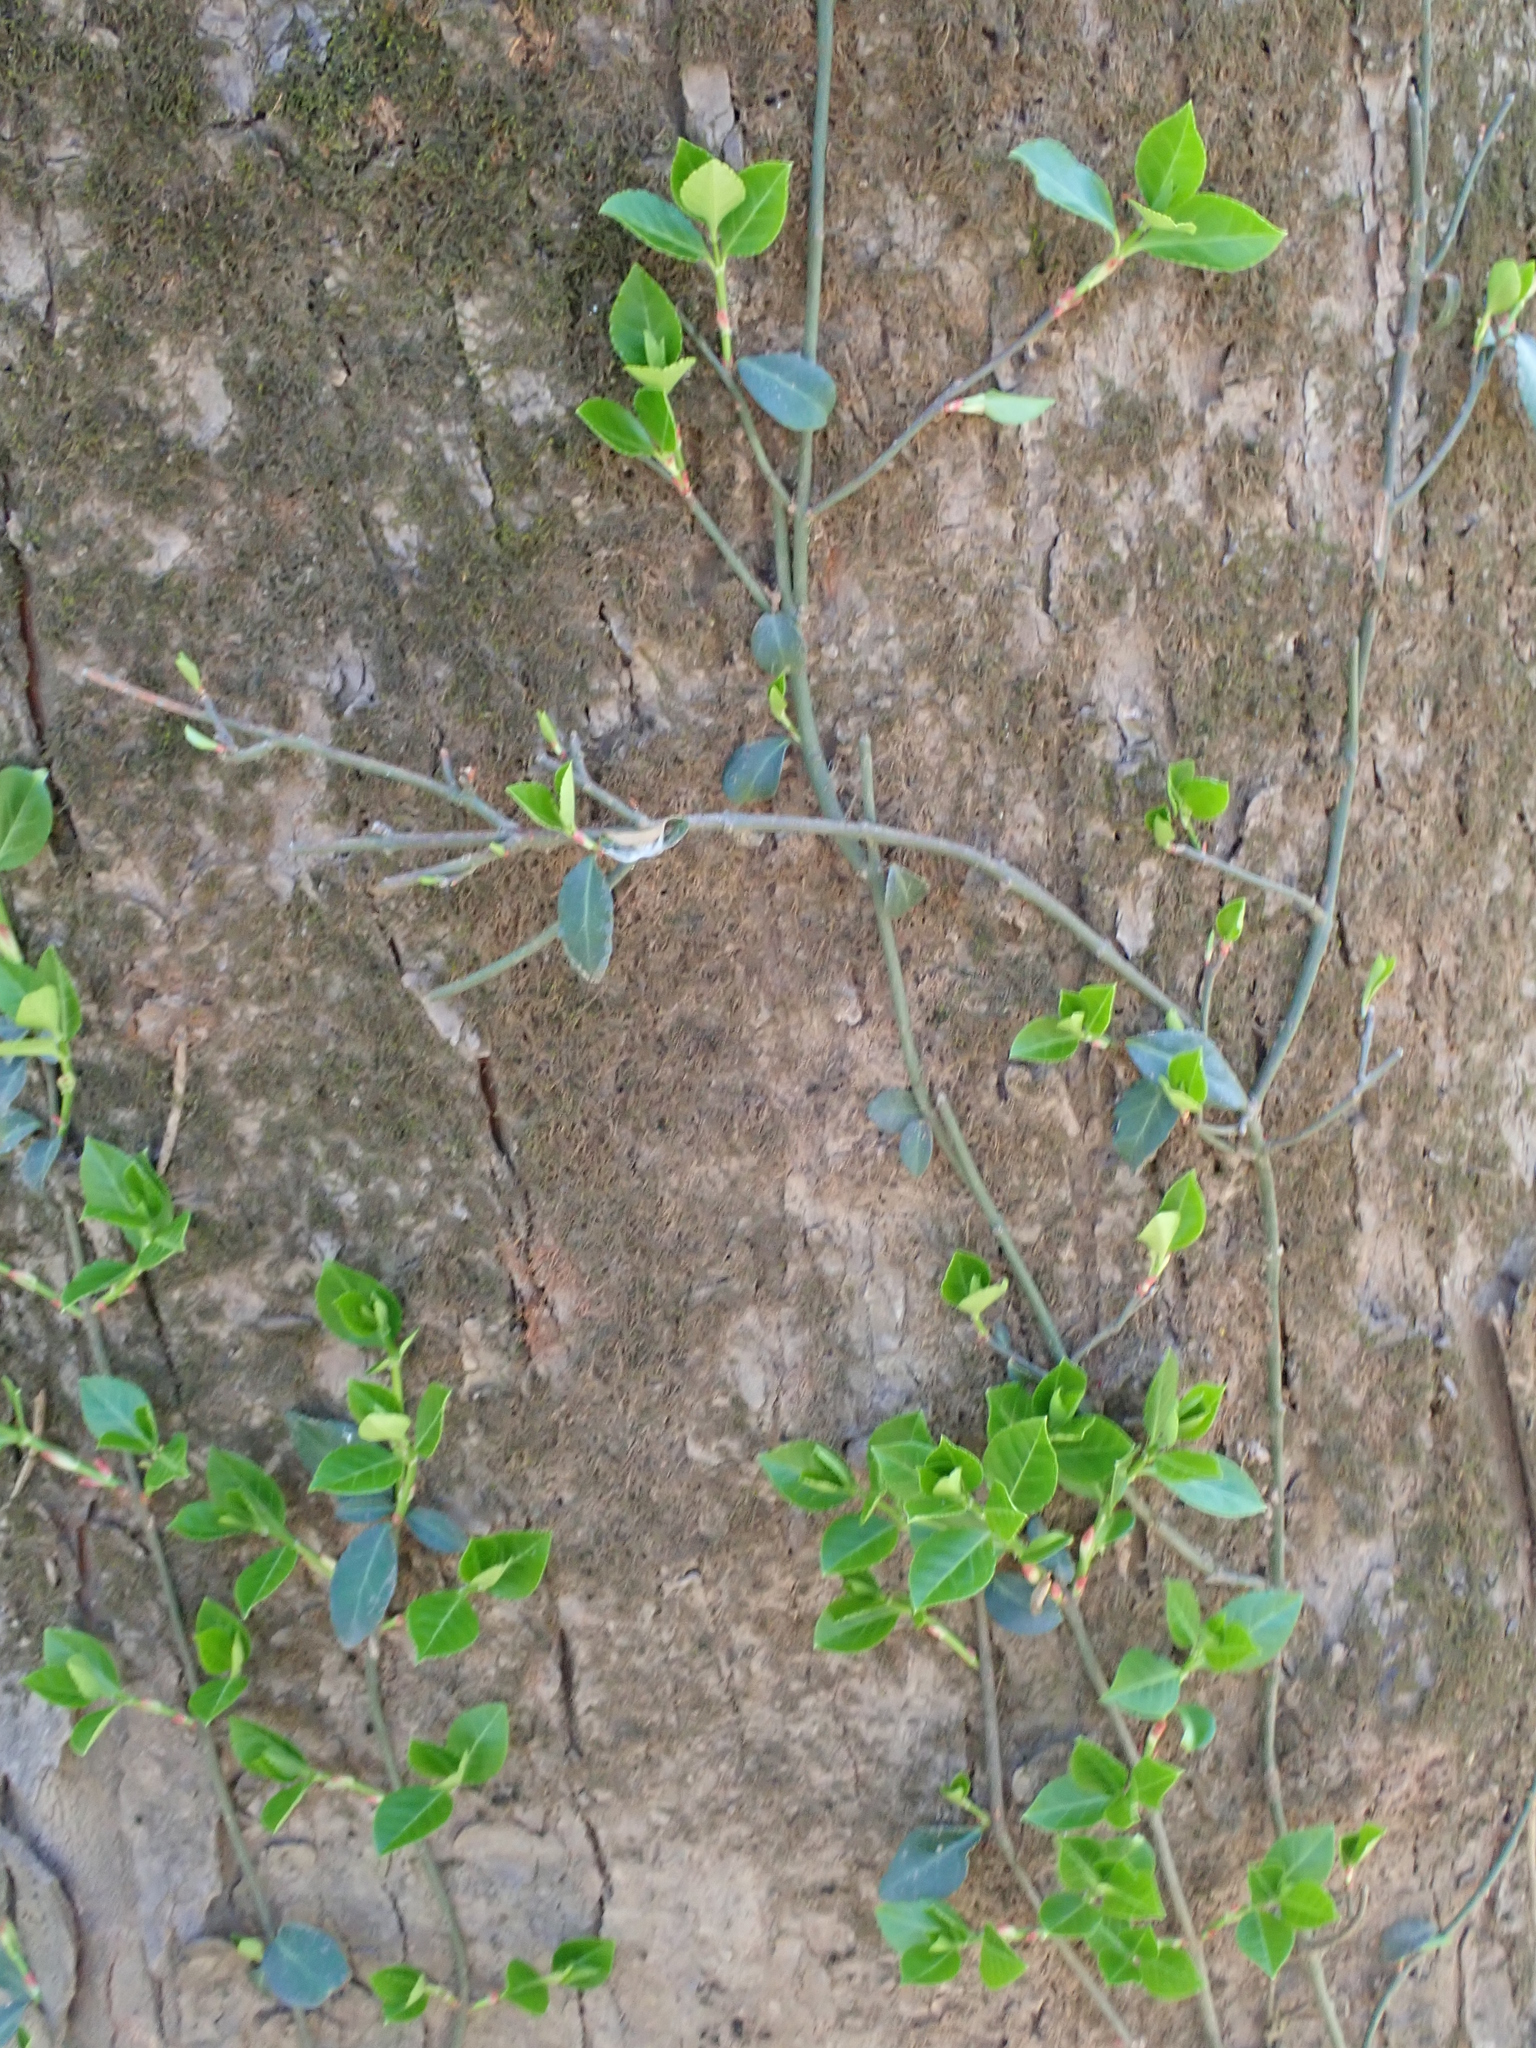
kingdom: Plantae
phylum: Tracheophyta
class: Magnoliopsida
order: Celastrales
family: Celastraceae
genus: Euonymus
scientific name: Euonymus fortunei
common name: Climbing euonymus
